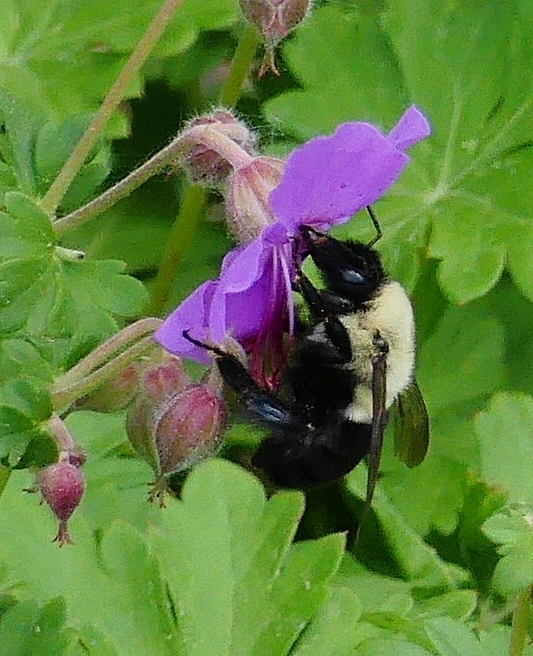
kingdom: Animalia
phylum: Arthropoda
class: Insecta
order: Hymenoptera
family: Apidae
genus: Bombus
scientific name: Bombus impatiens
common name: Common eastern bumble bee
